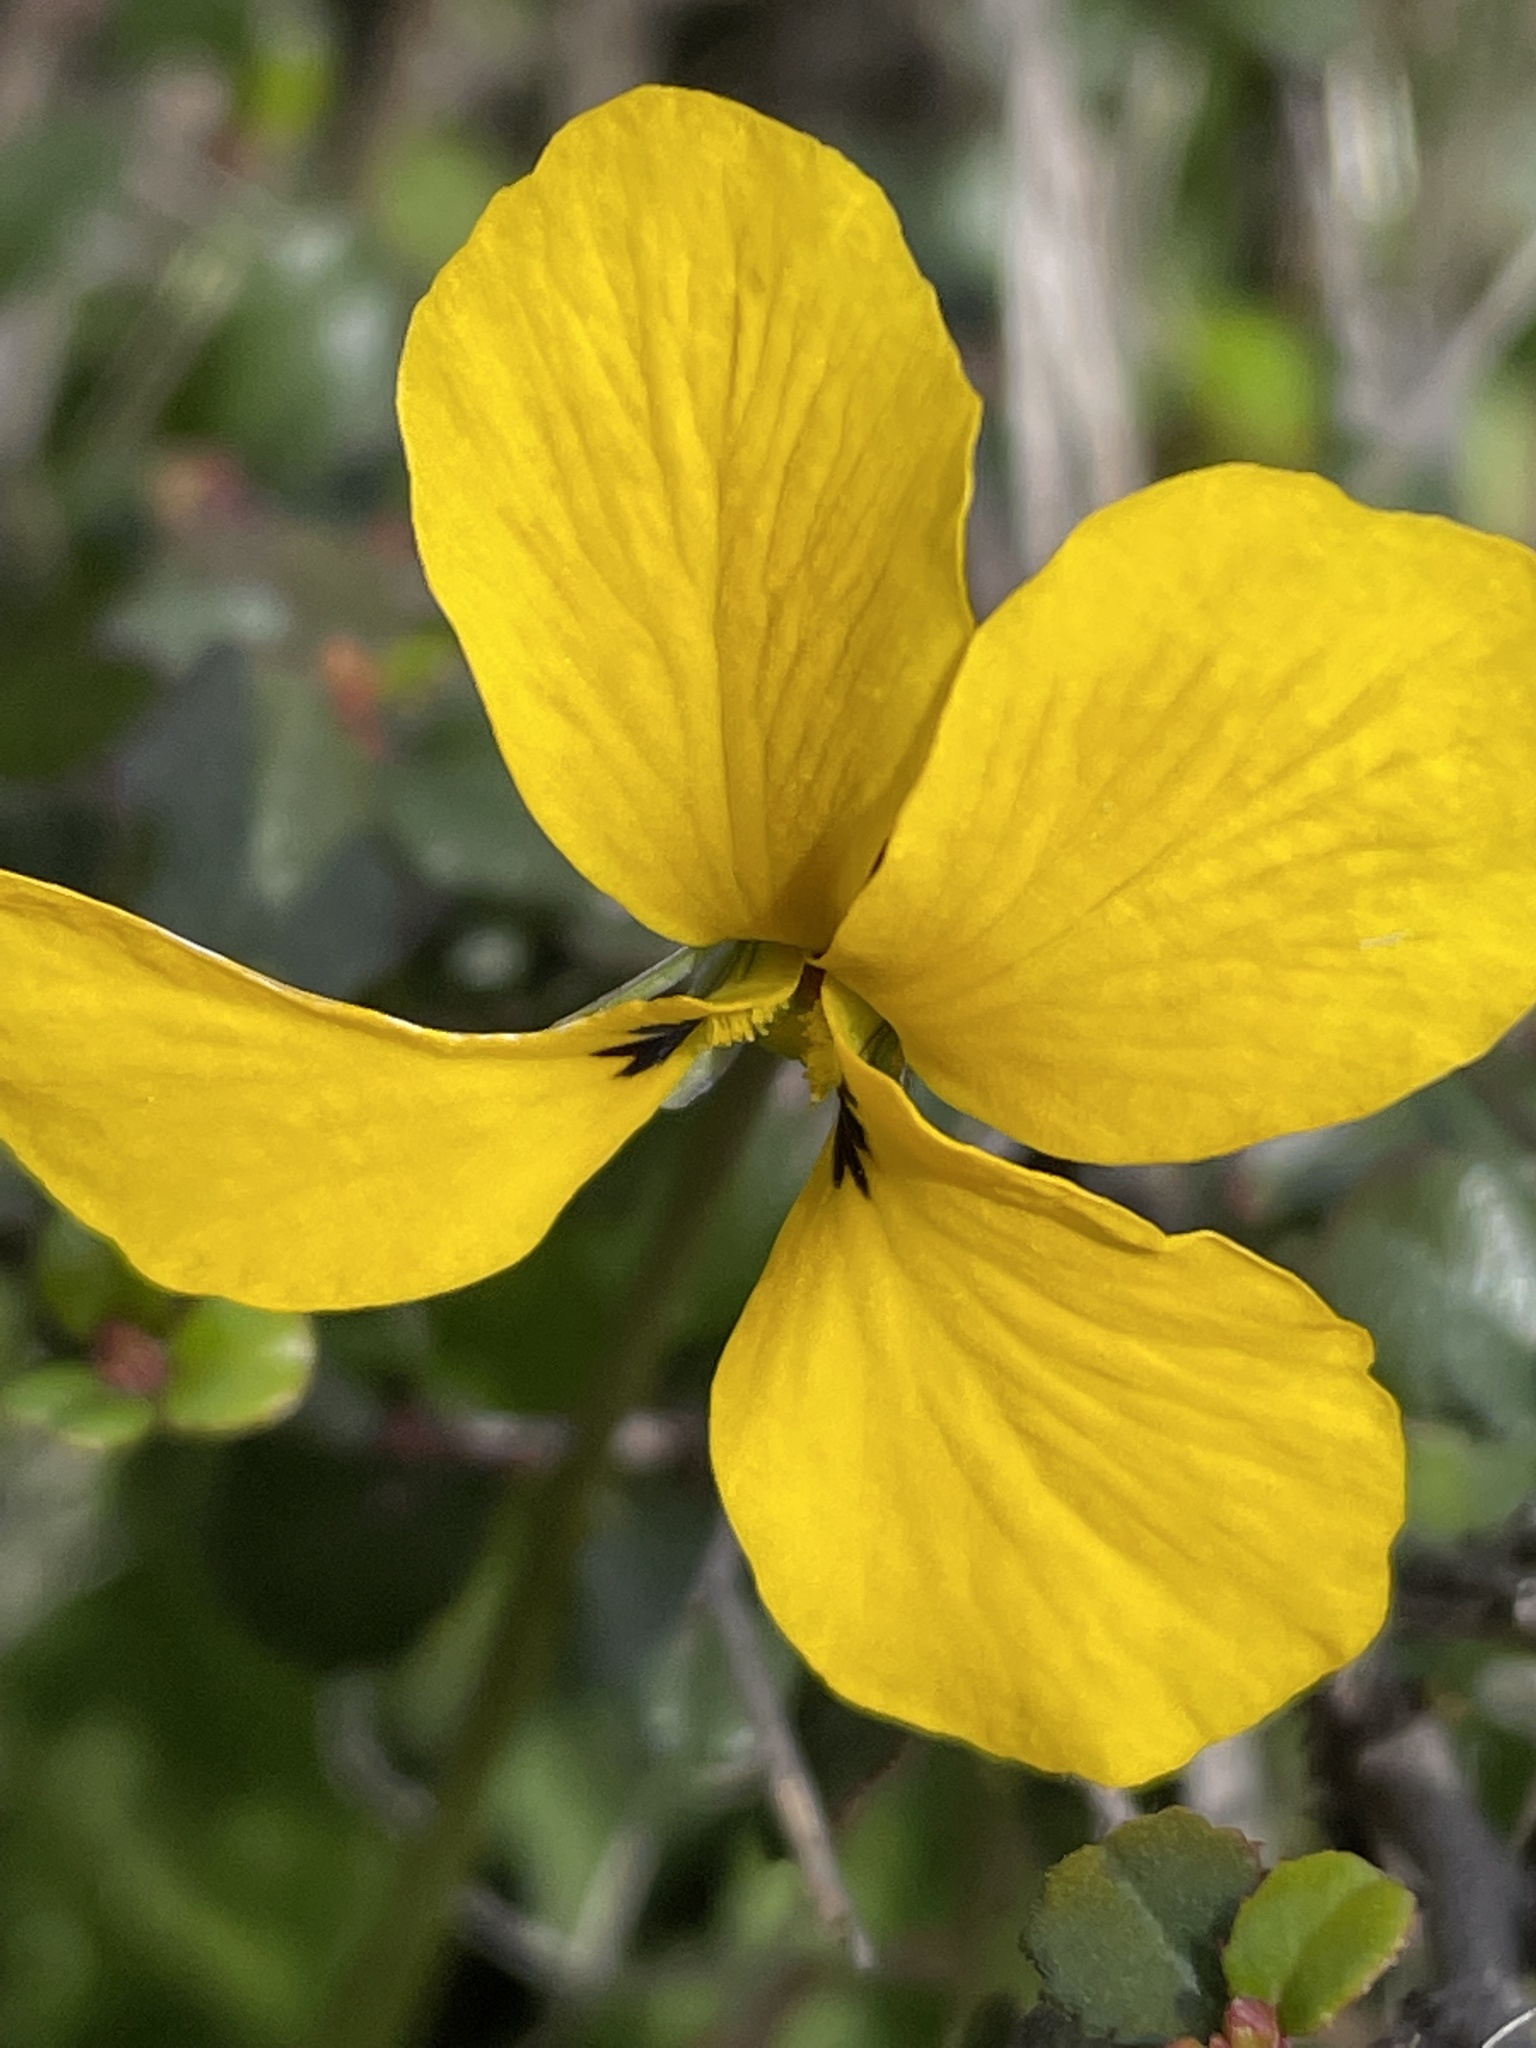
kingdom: Plantae
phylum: Tracheophyta
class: Magnoliopsida
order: Malpighiales
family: Violaceae
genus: Viola
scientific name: Viola pedunculata
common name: California golden violet
